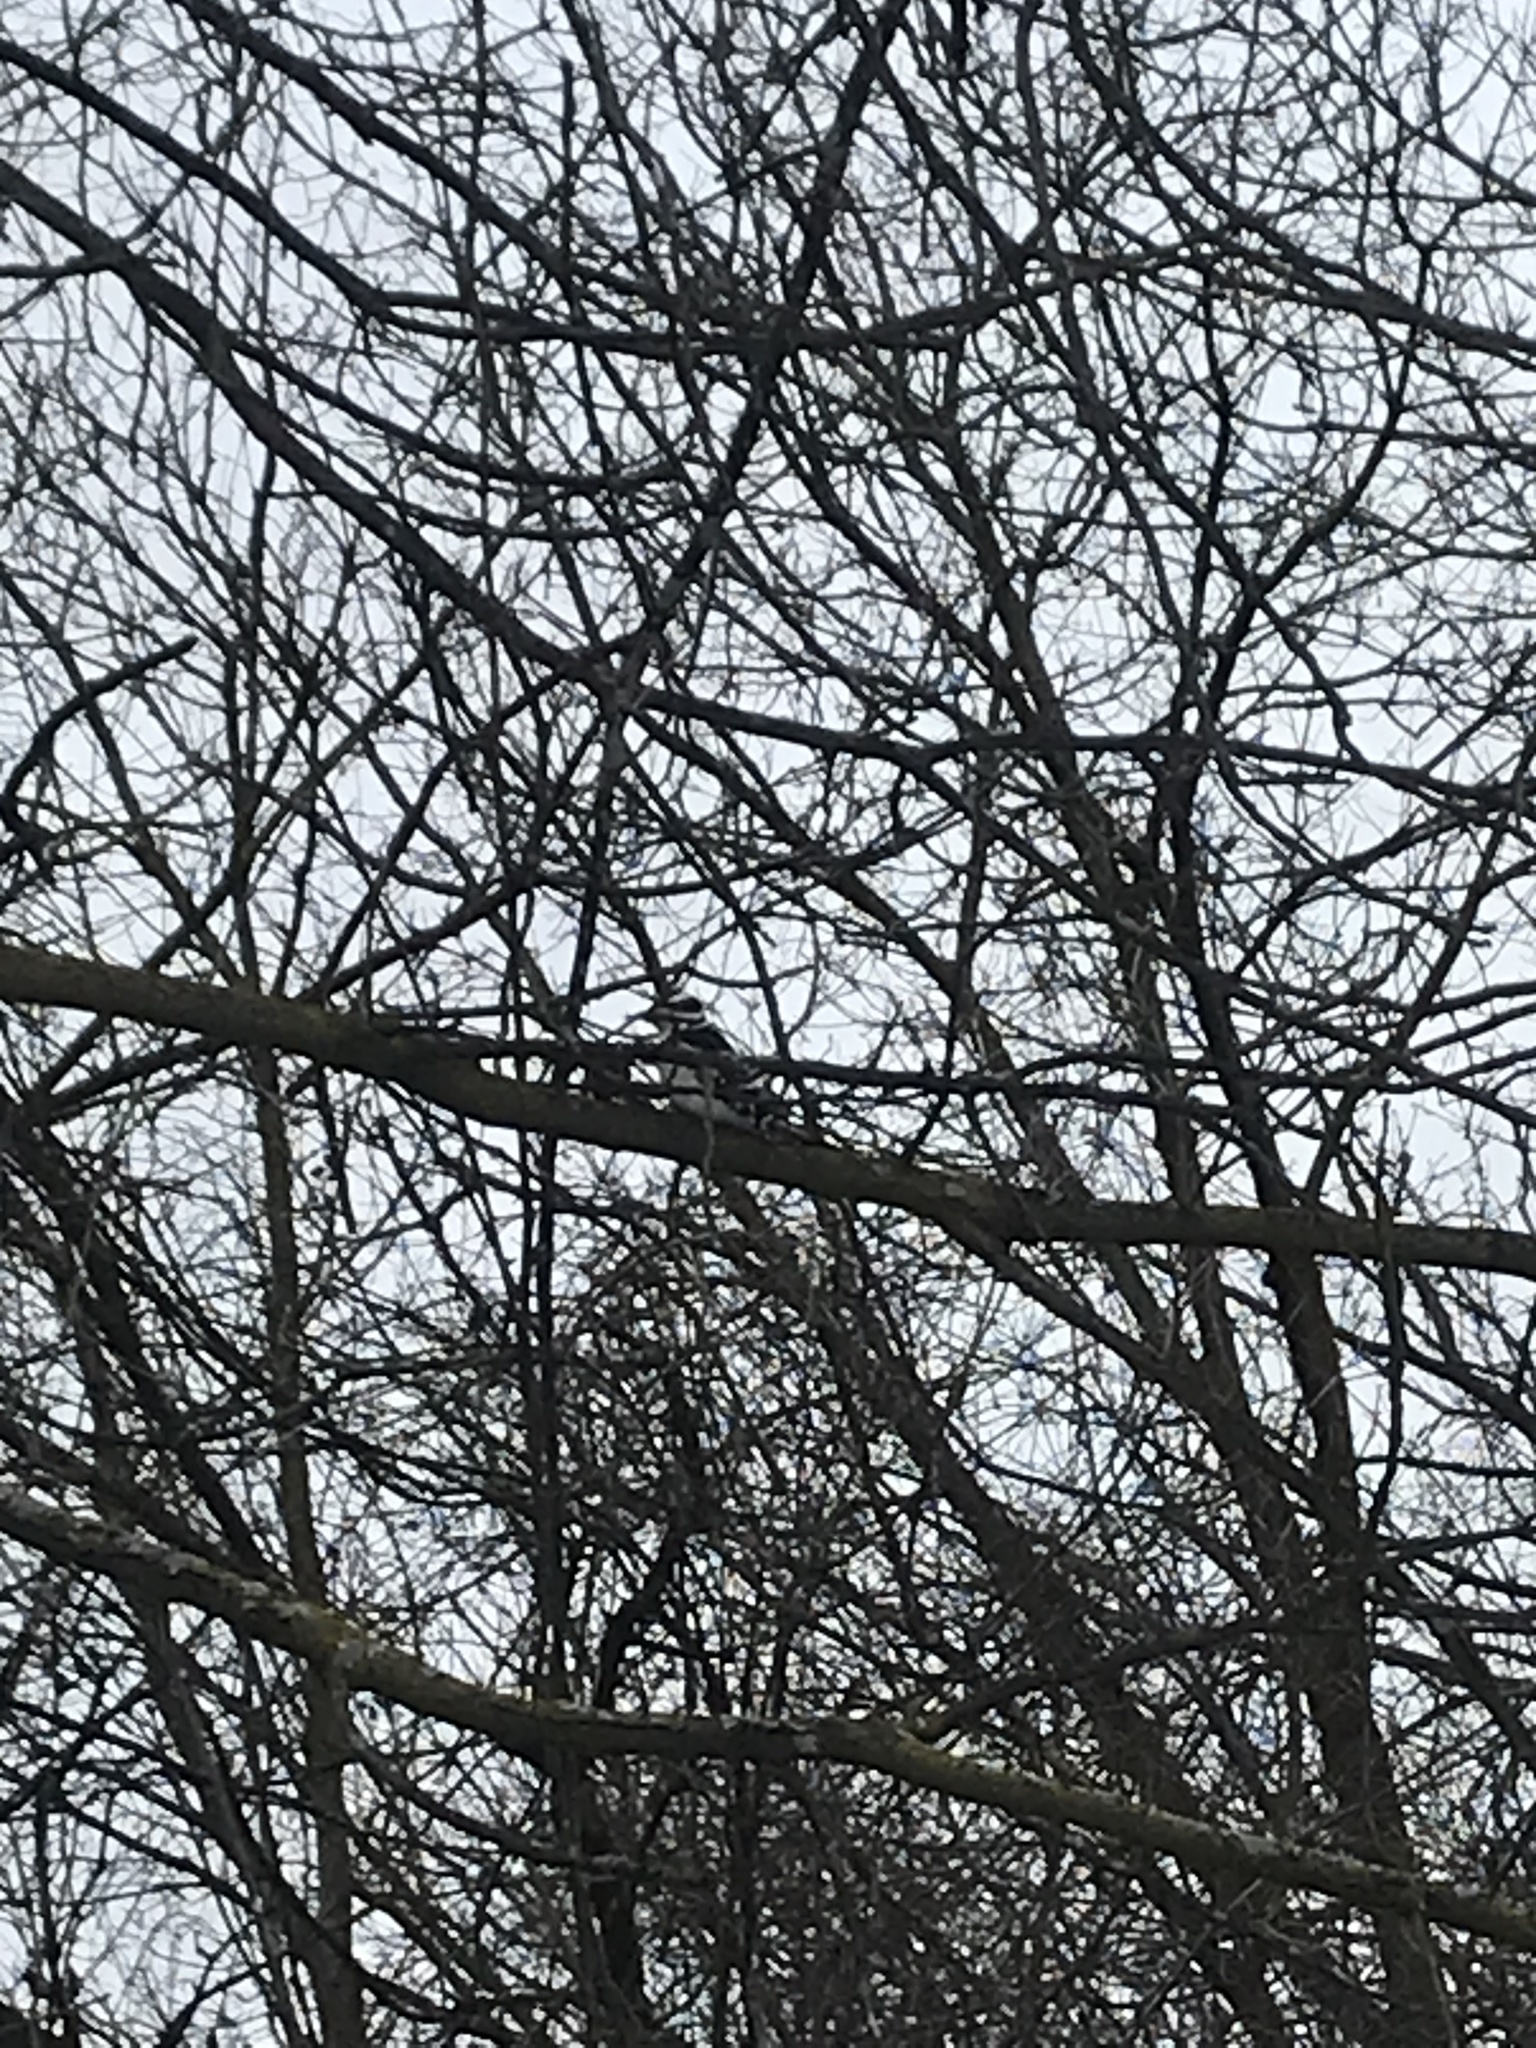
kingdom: Animalia
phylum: Chordata
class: Aves
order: Piciformes
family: Picidae
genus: Leuconotopicus
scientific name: Leuconotopicus villosus
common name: Hairy woodpecker
